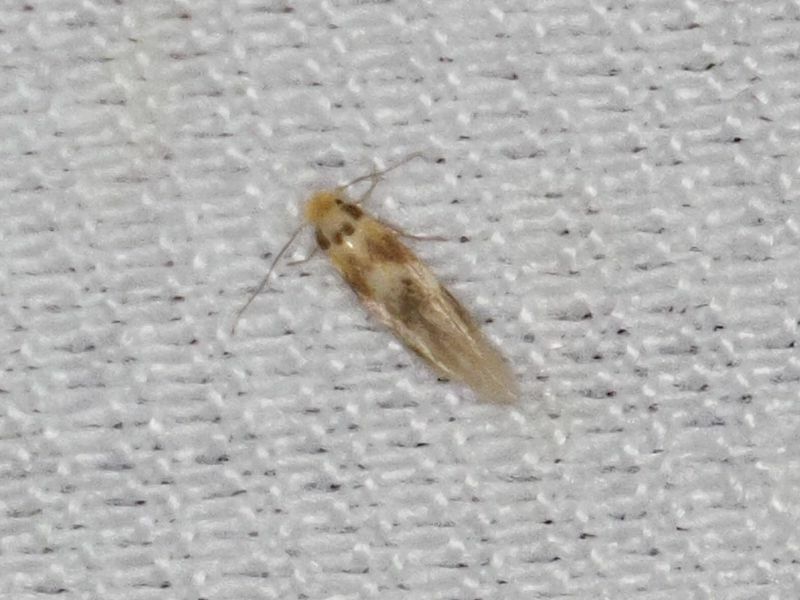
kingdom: Animalia
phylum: Arthropoda
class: Insecta
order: Lepidoptera
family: Bucculatricidae
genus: Bucculatrix
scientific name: Bucculatrix thoracella
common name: Lime bent-wing
